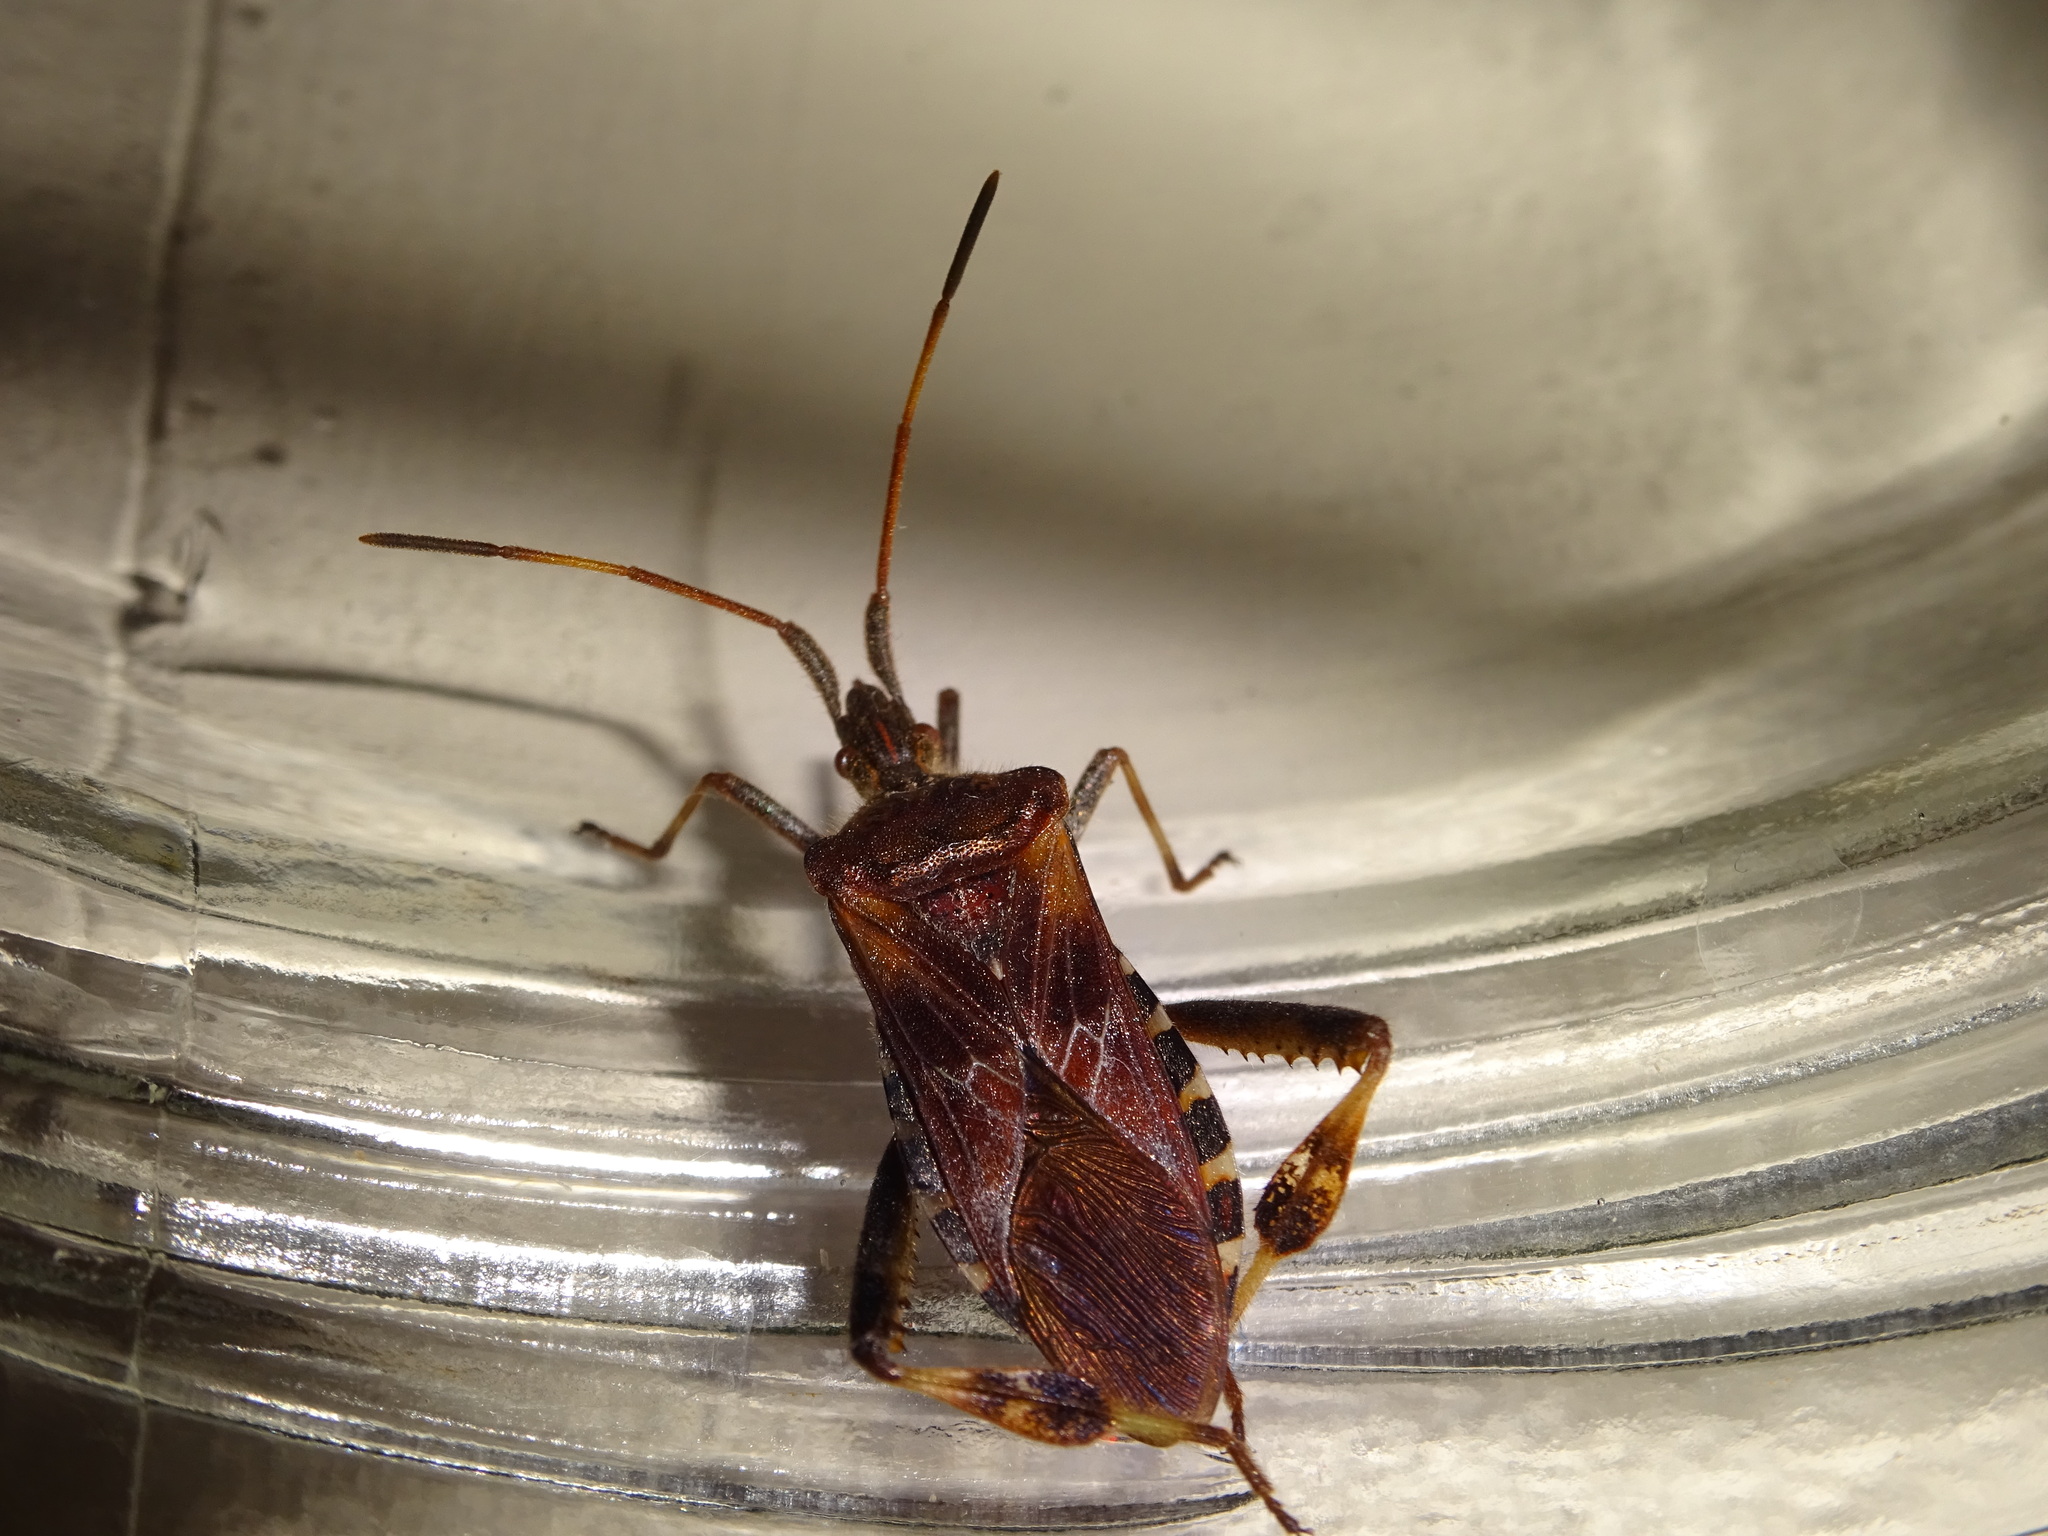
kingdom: Animalia
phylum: Arthropoda
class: Insecta
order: Hemiptera
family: Coreidae
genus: Leptoglossus
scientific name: Leptoglossus occidentalis
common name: Western conifer-seed bug
